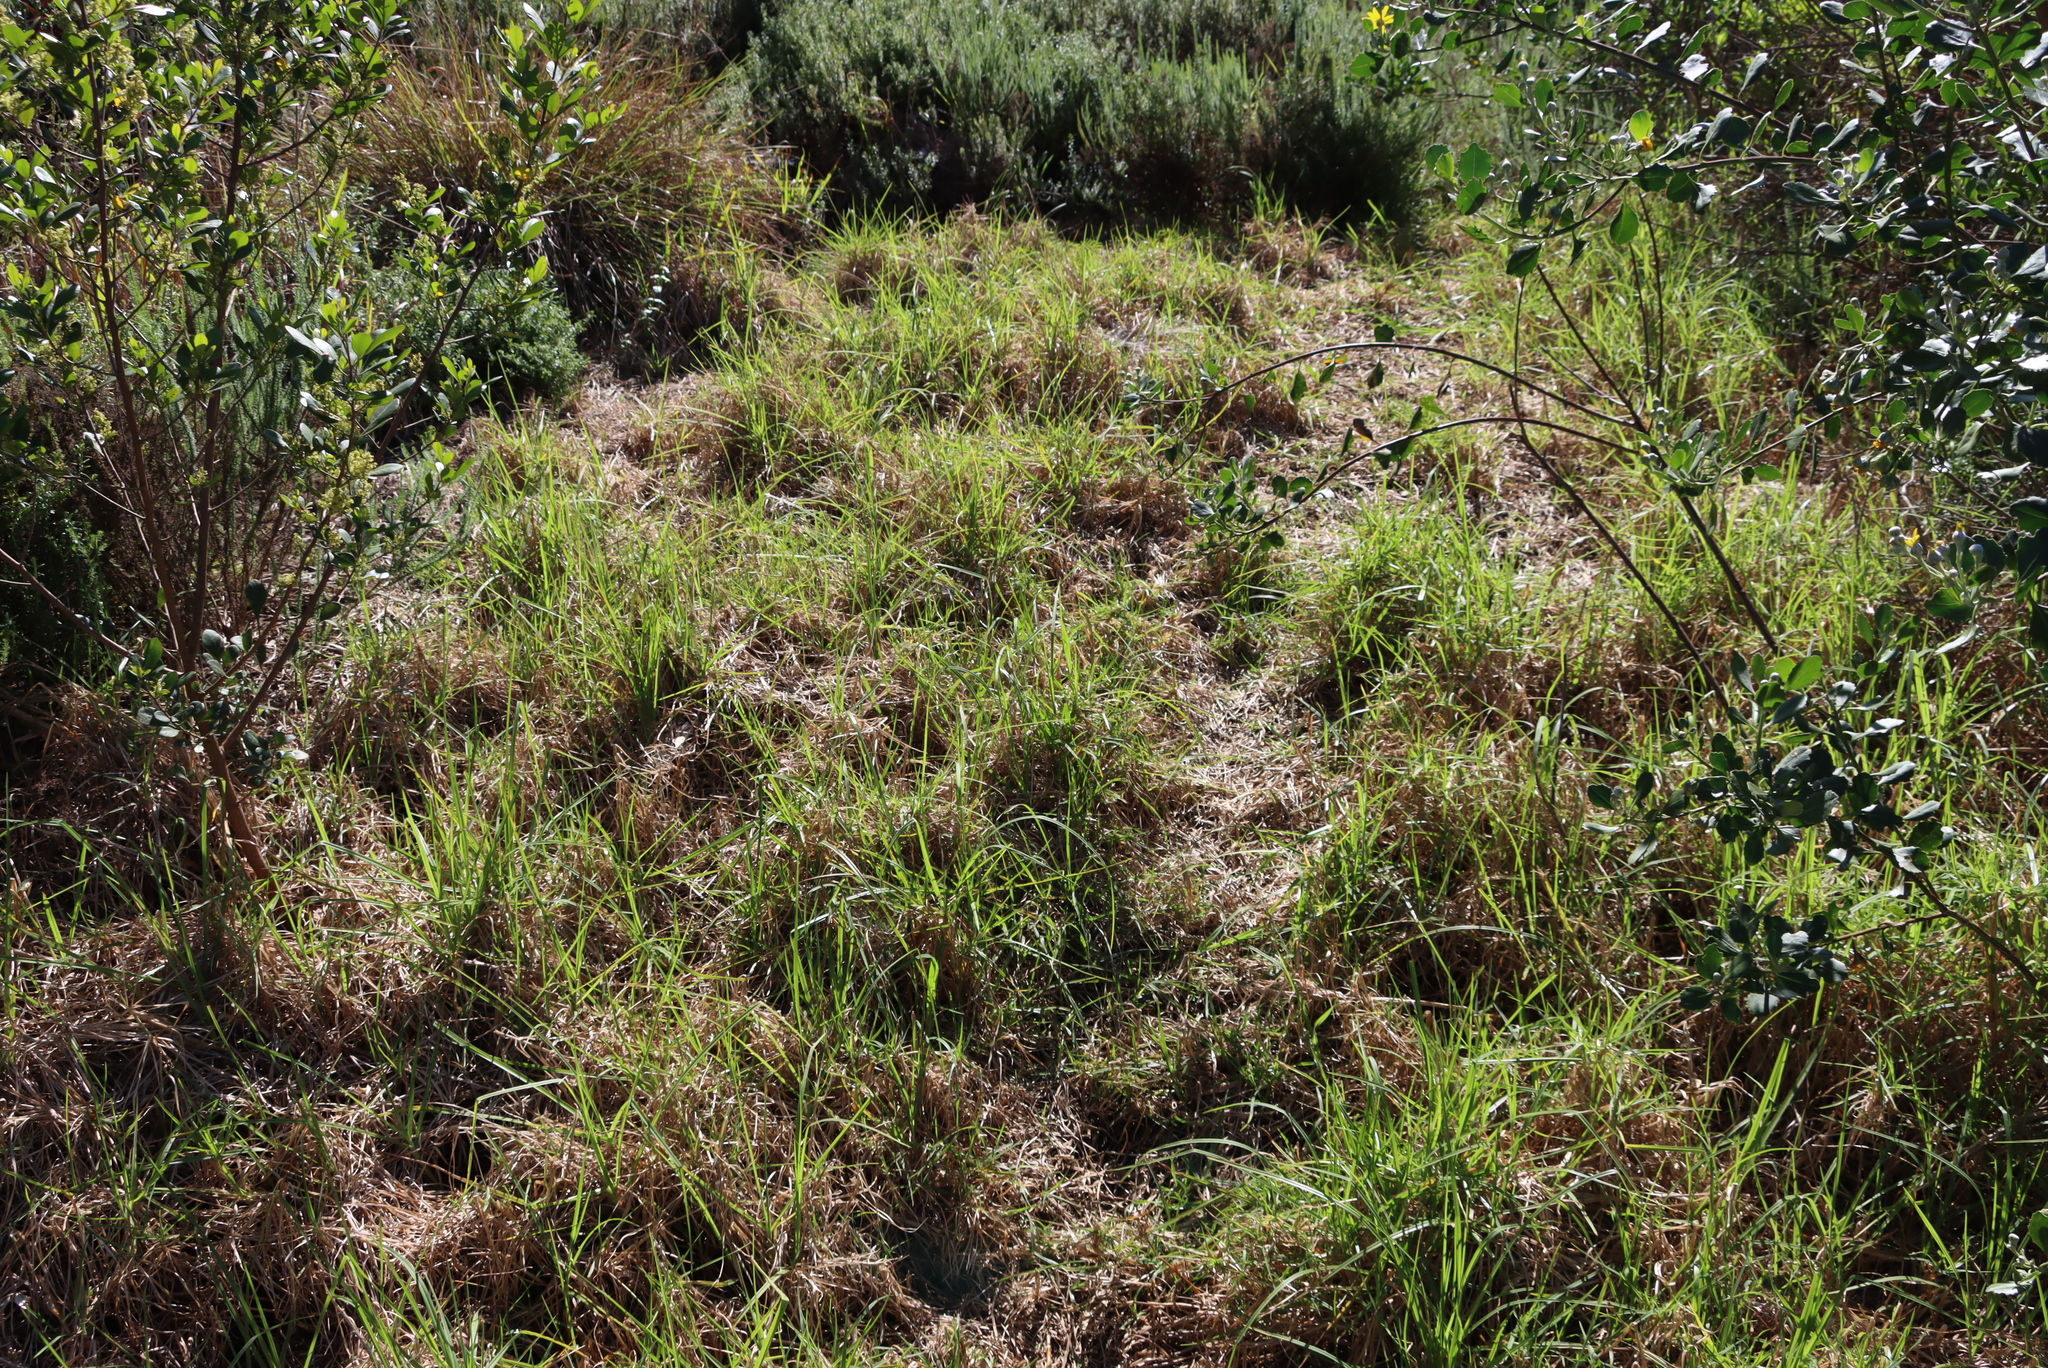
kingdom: Plantae
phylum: Tracheophyta
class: Liliopsida
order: Poales
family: Poaceae
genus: Cenchrus
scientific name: Cenchrus clandestinus
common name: Kikuyugrass
